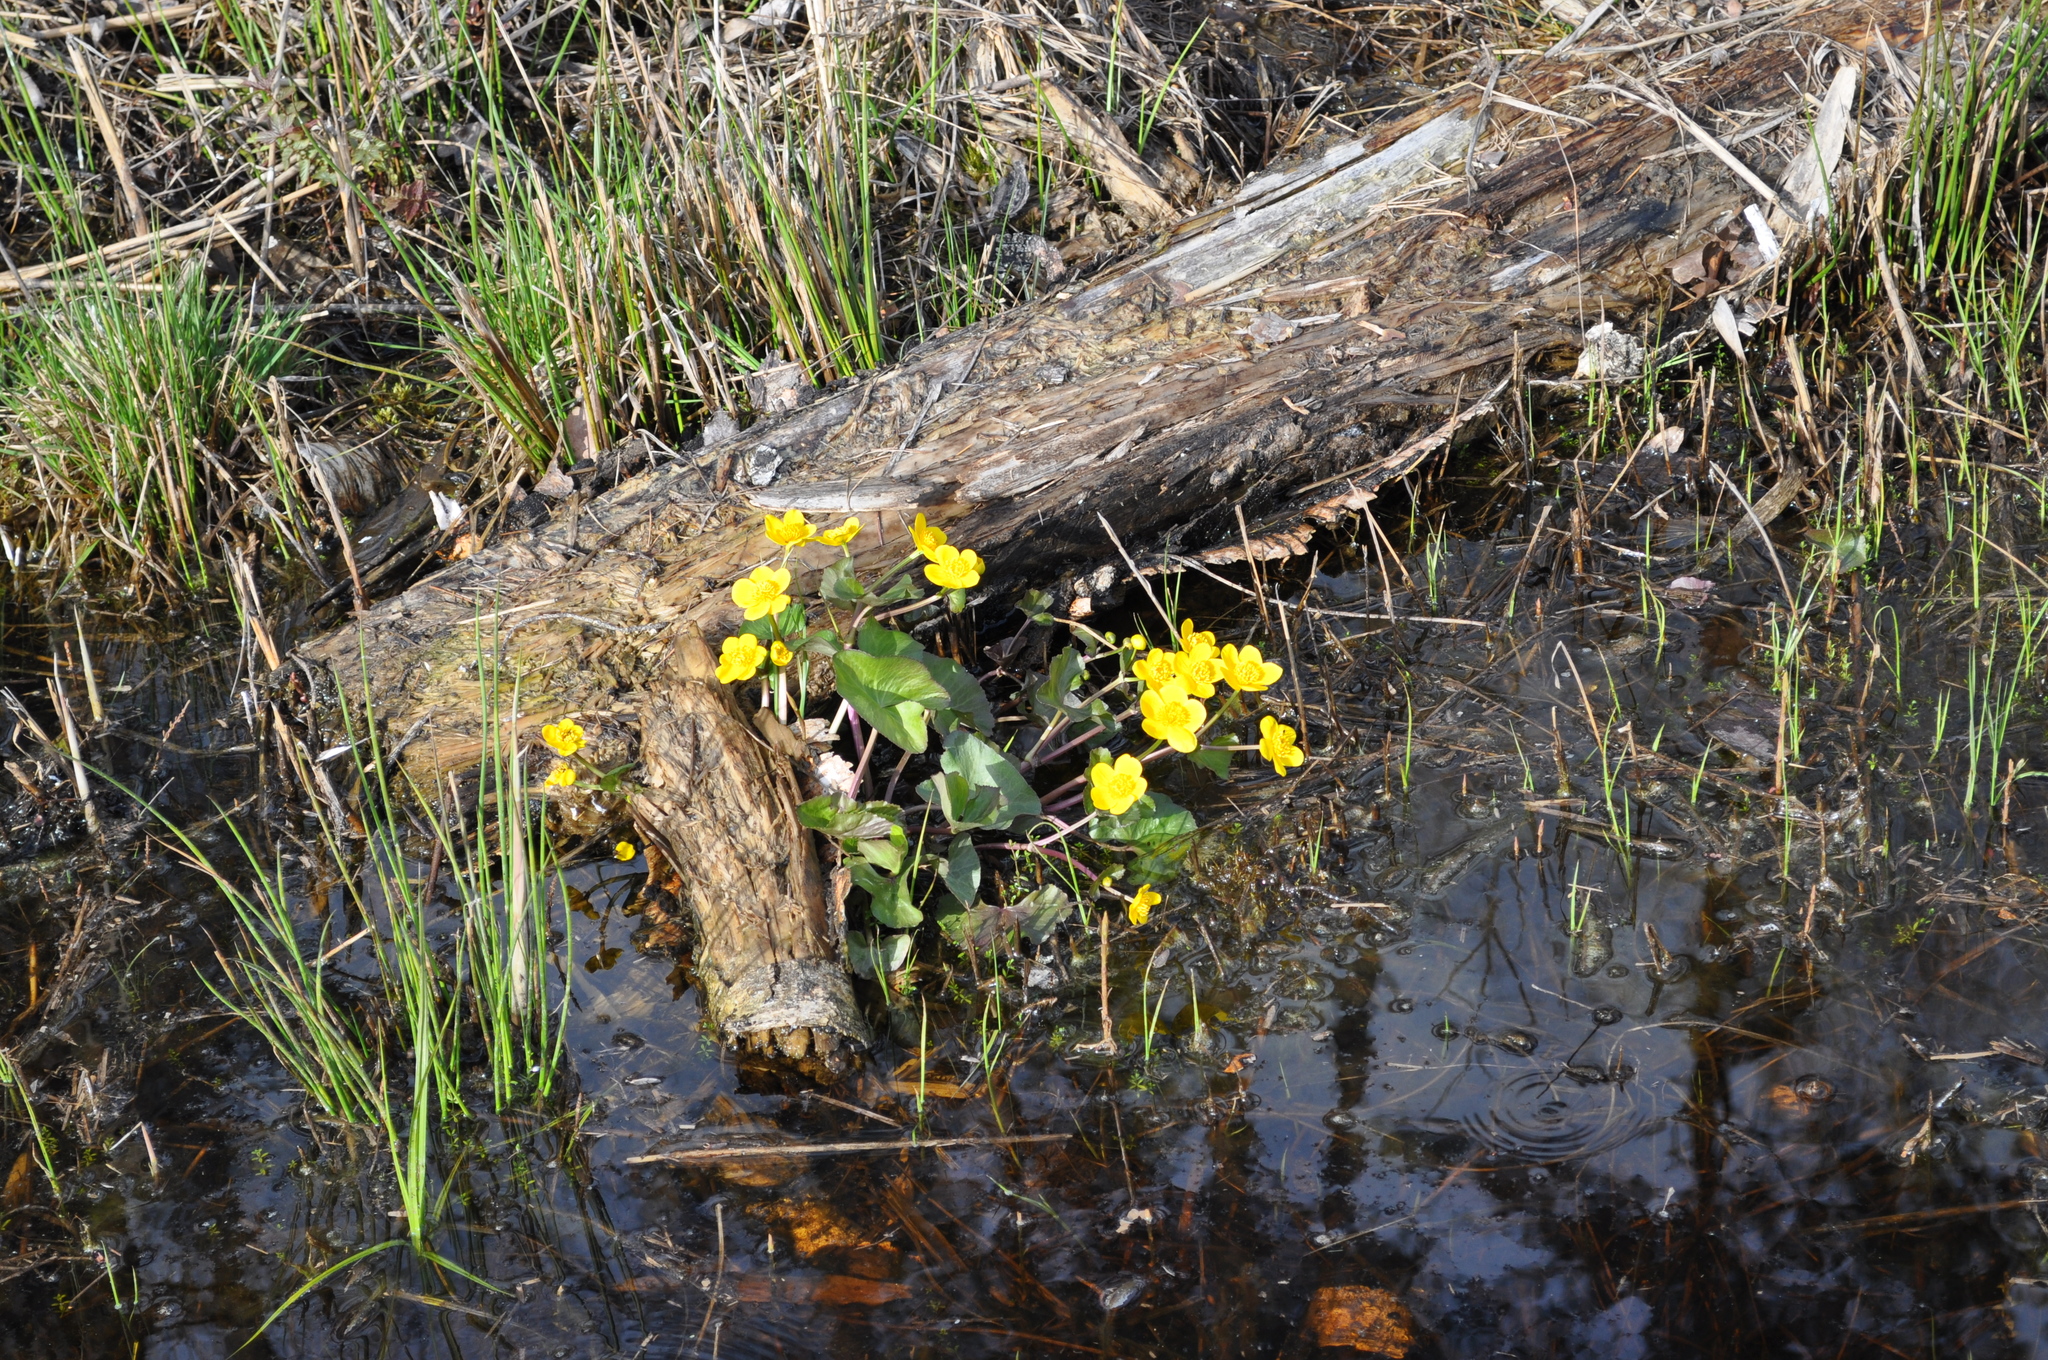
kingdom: Plantae
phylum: Tracheophyta
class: Magnoliopsida
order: Ranunculales
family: Ranunculaceae
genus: Caltha
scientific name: Caltha palustris
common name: Marsh marigold
